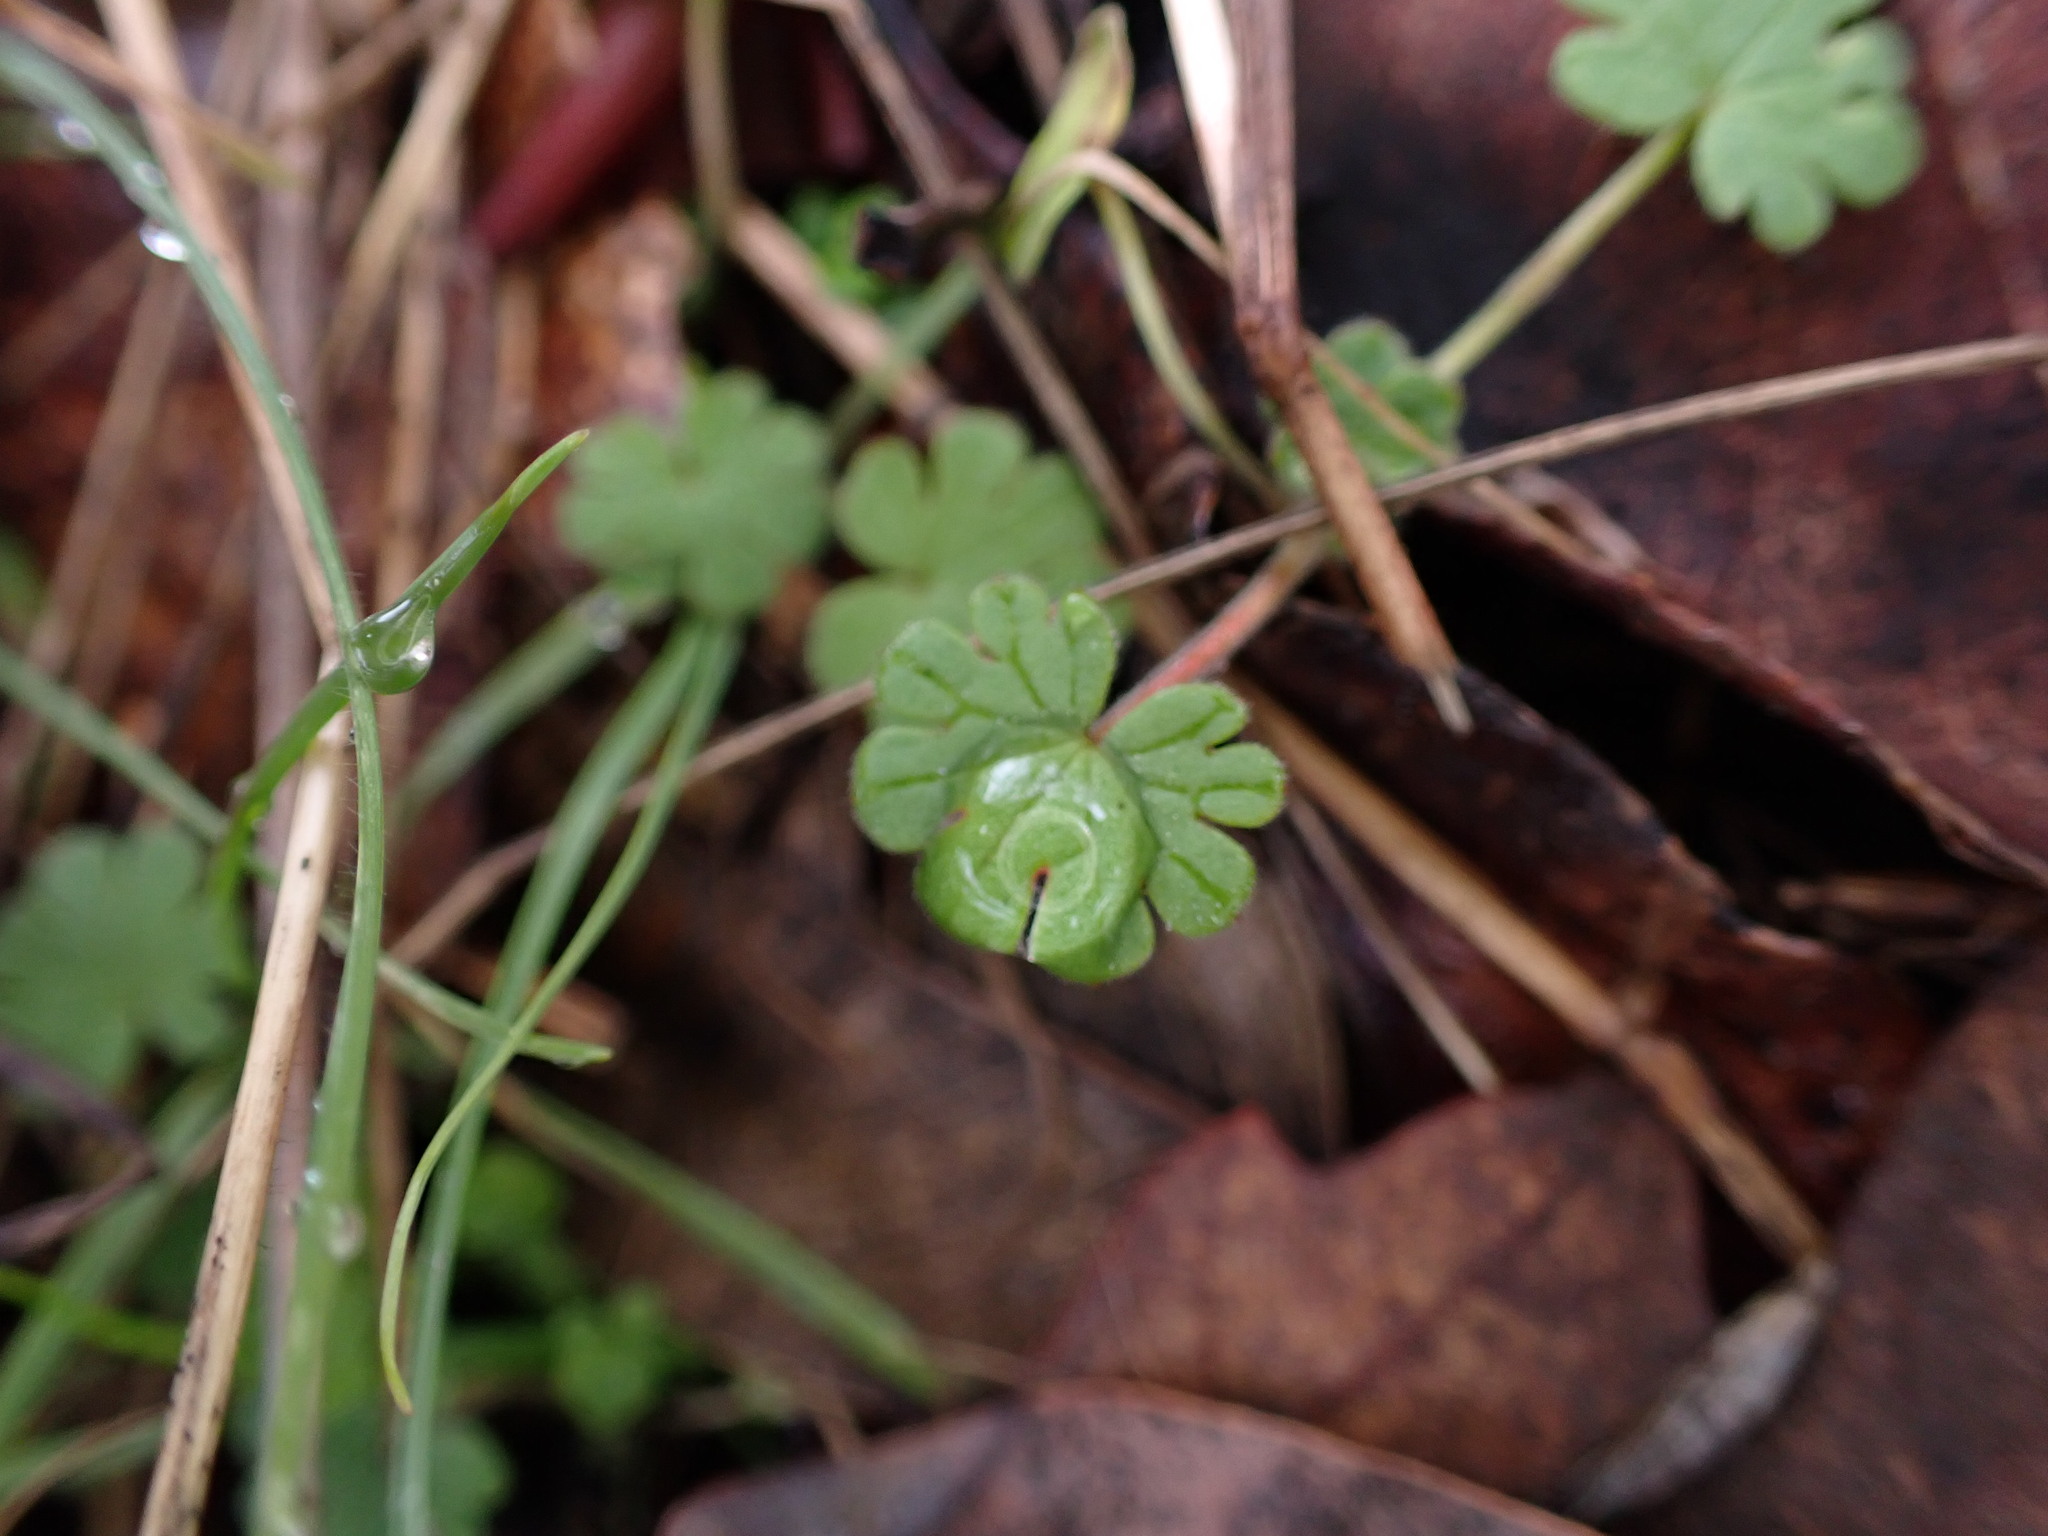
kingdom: Plantae
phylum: Tracheophyta
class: Magnoliopsida
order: Geraniales
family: Geraniaceae
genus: Geranium
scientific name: Geranium molle
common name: Dove's-foot crane's-bill
